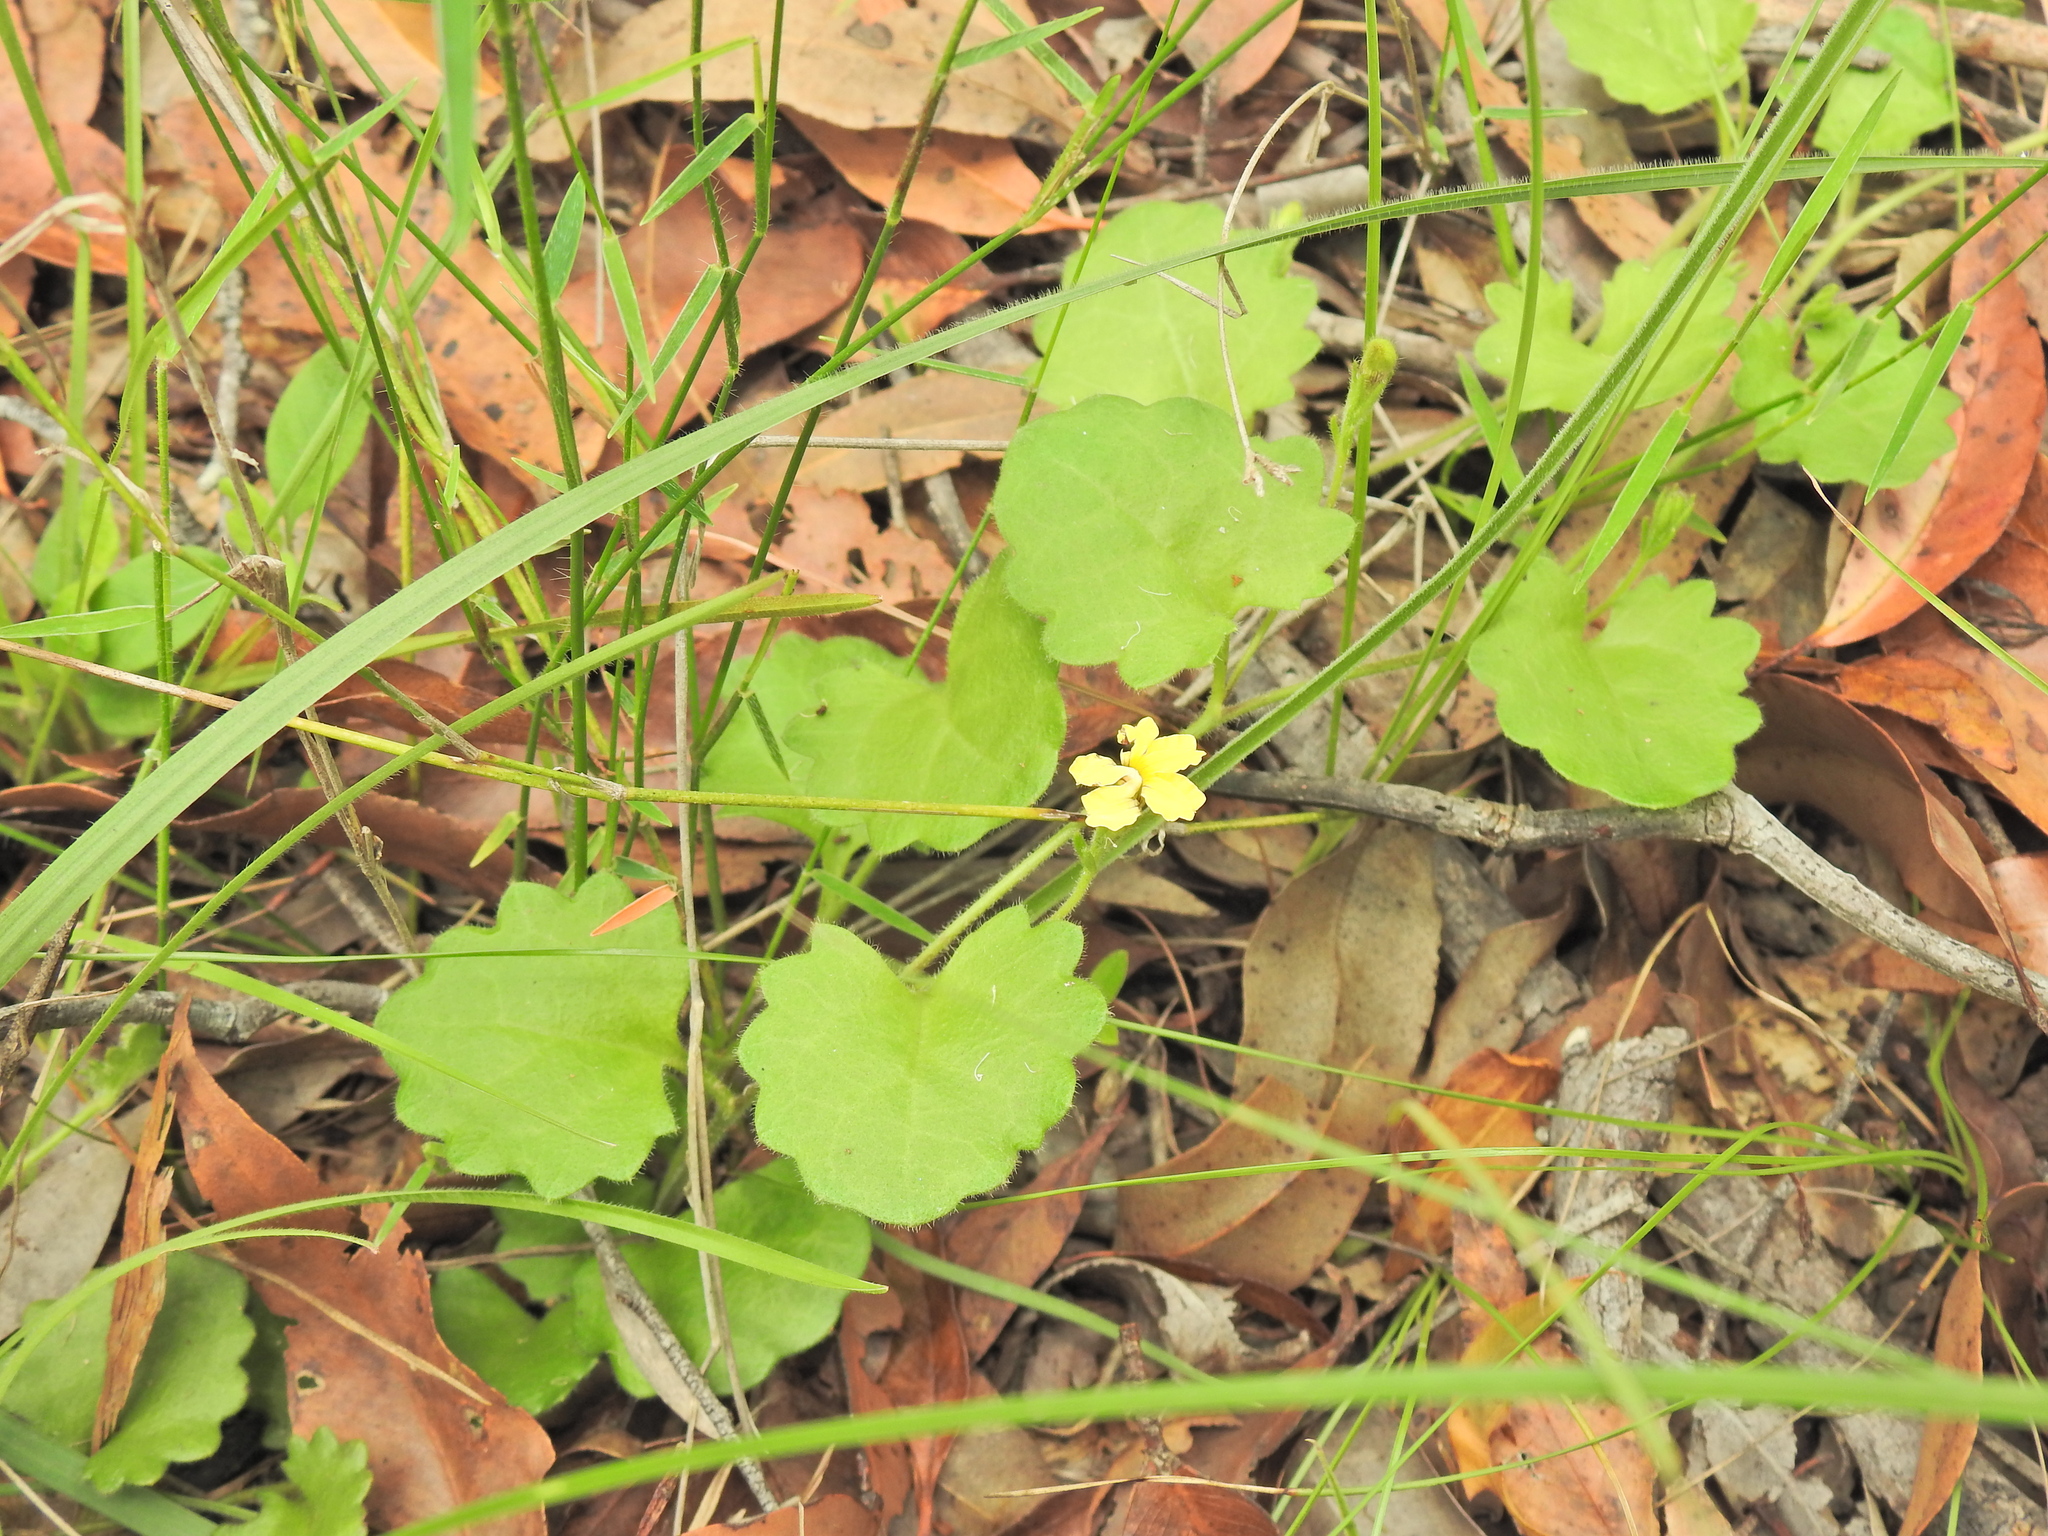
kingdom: Plantae
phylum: Tracheophyta
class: Magnoliopsida
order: Asterales
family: Goodeniaceae
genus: Goodenia
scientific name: Goodenia rotundifolia
